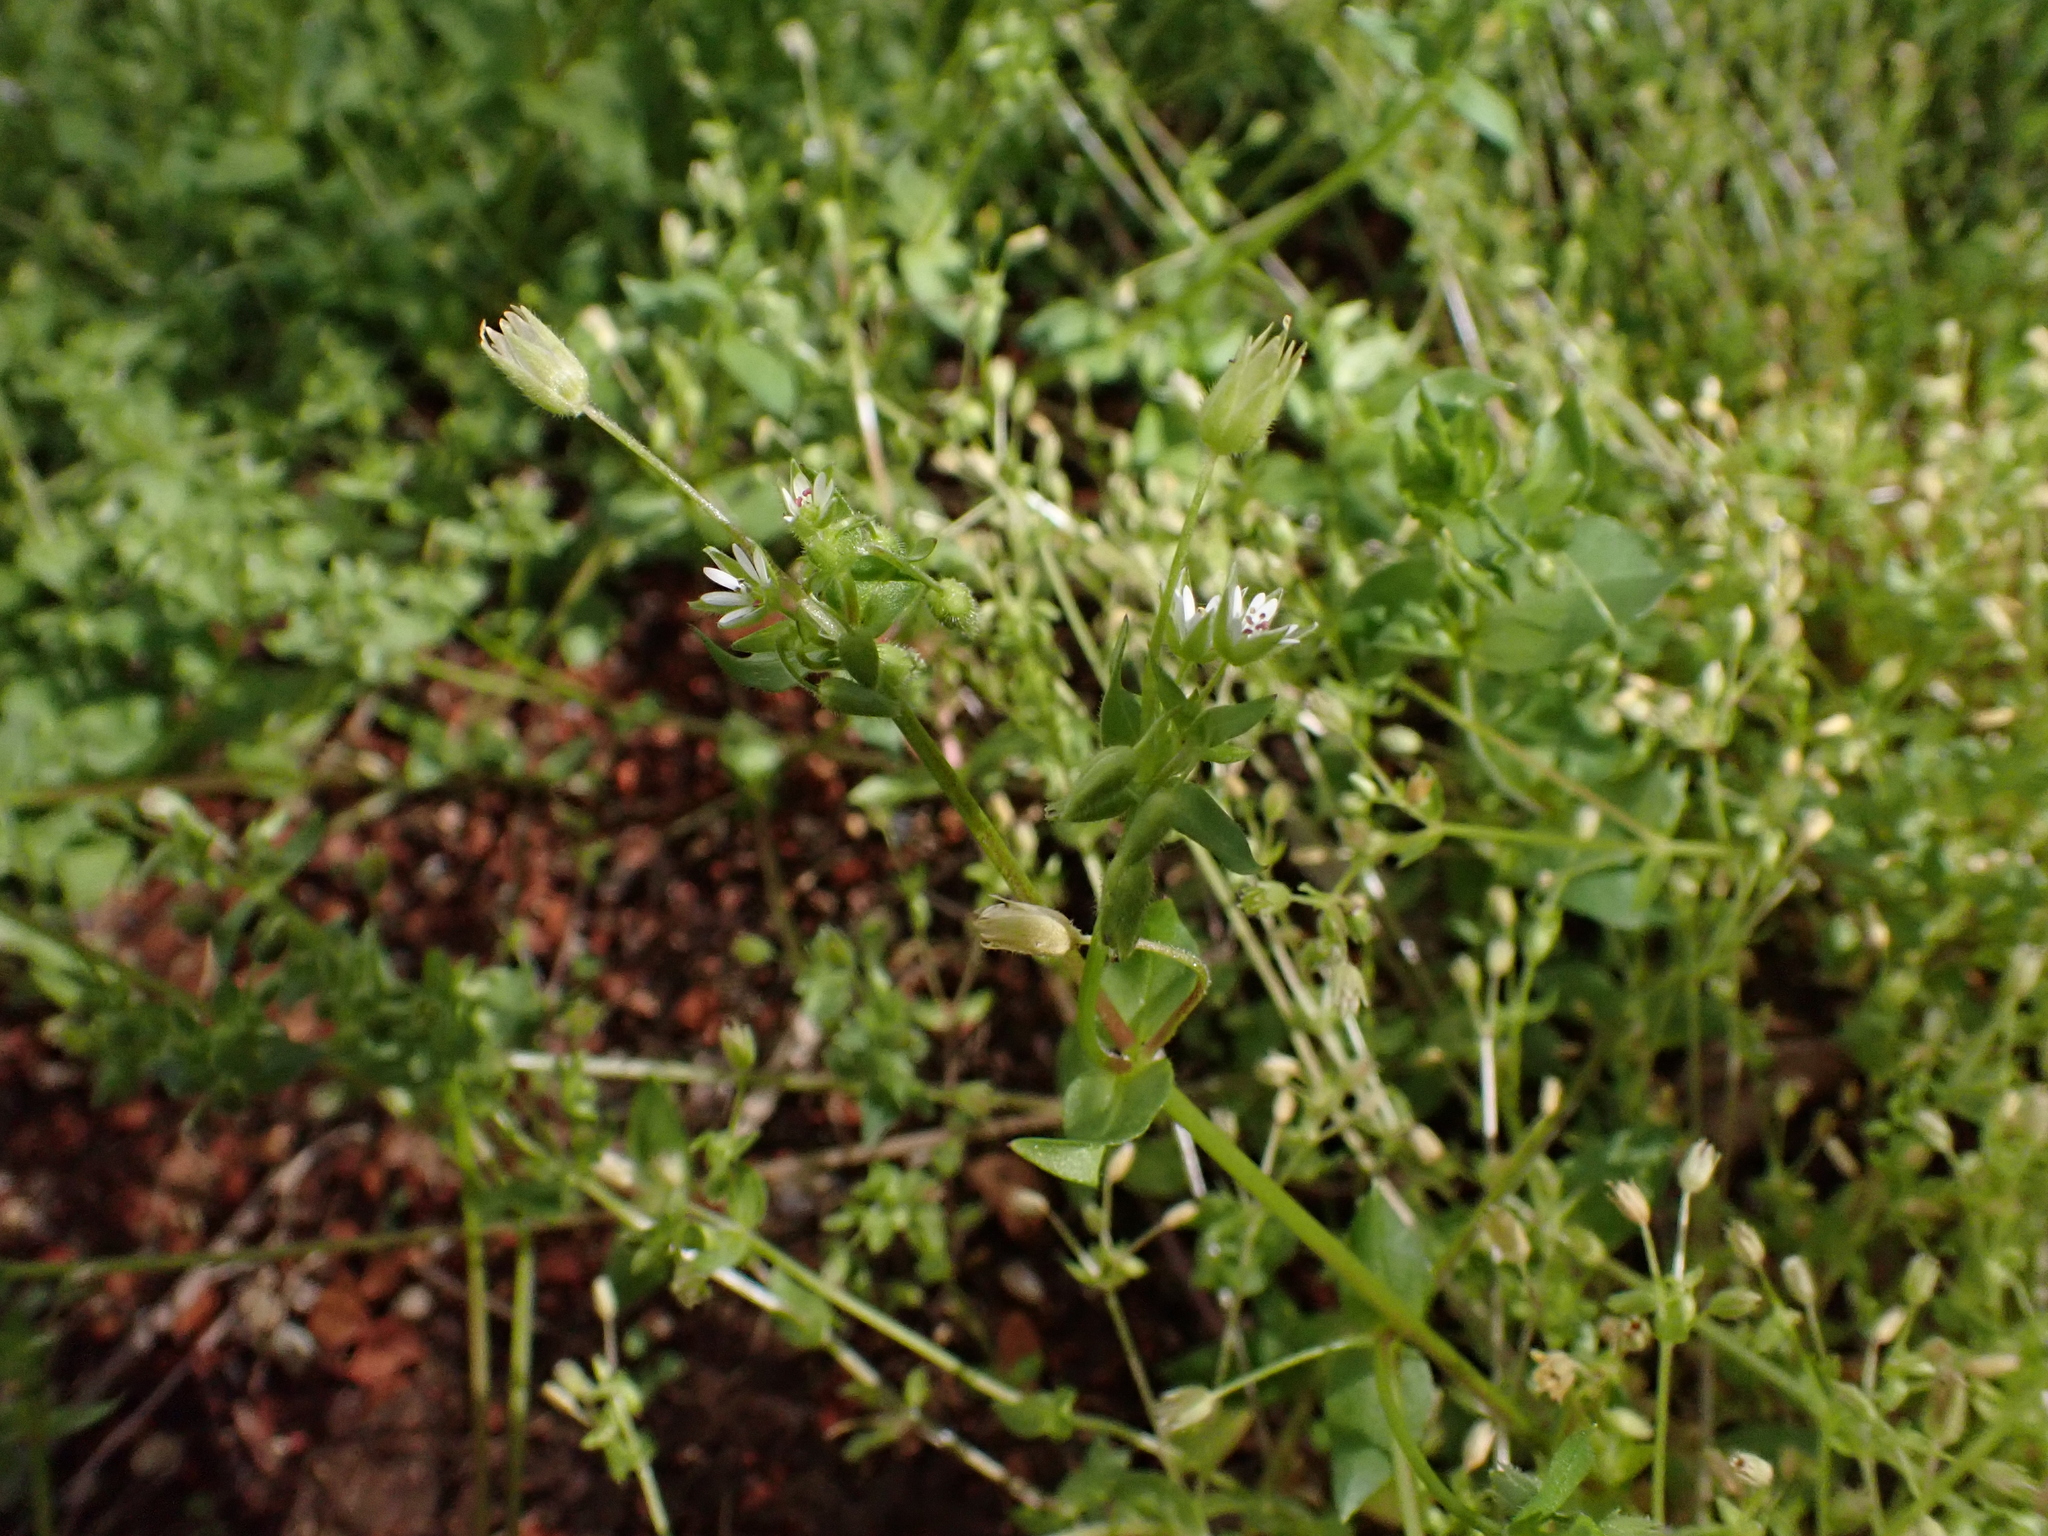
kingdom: Plantae
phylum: Tracheophyta
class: Magnoliopsida
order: Caryophyllales
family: Caryophyllaceae
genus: Stellaria
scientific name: Stellaria ruderalis
